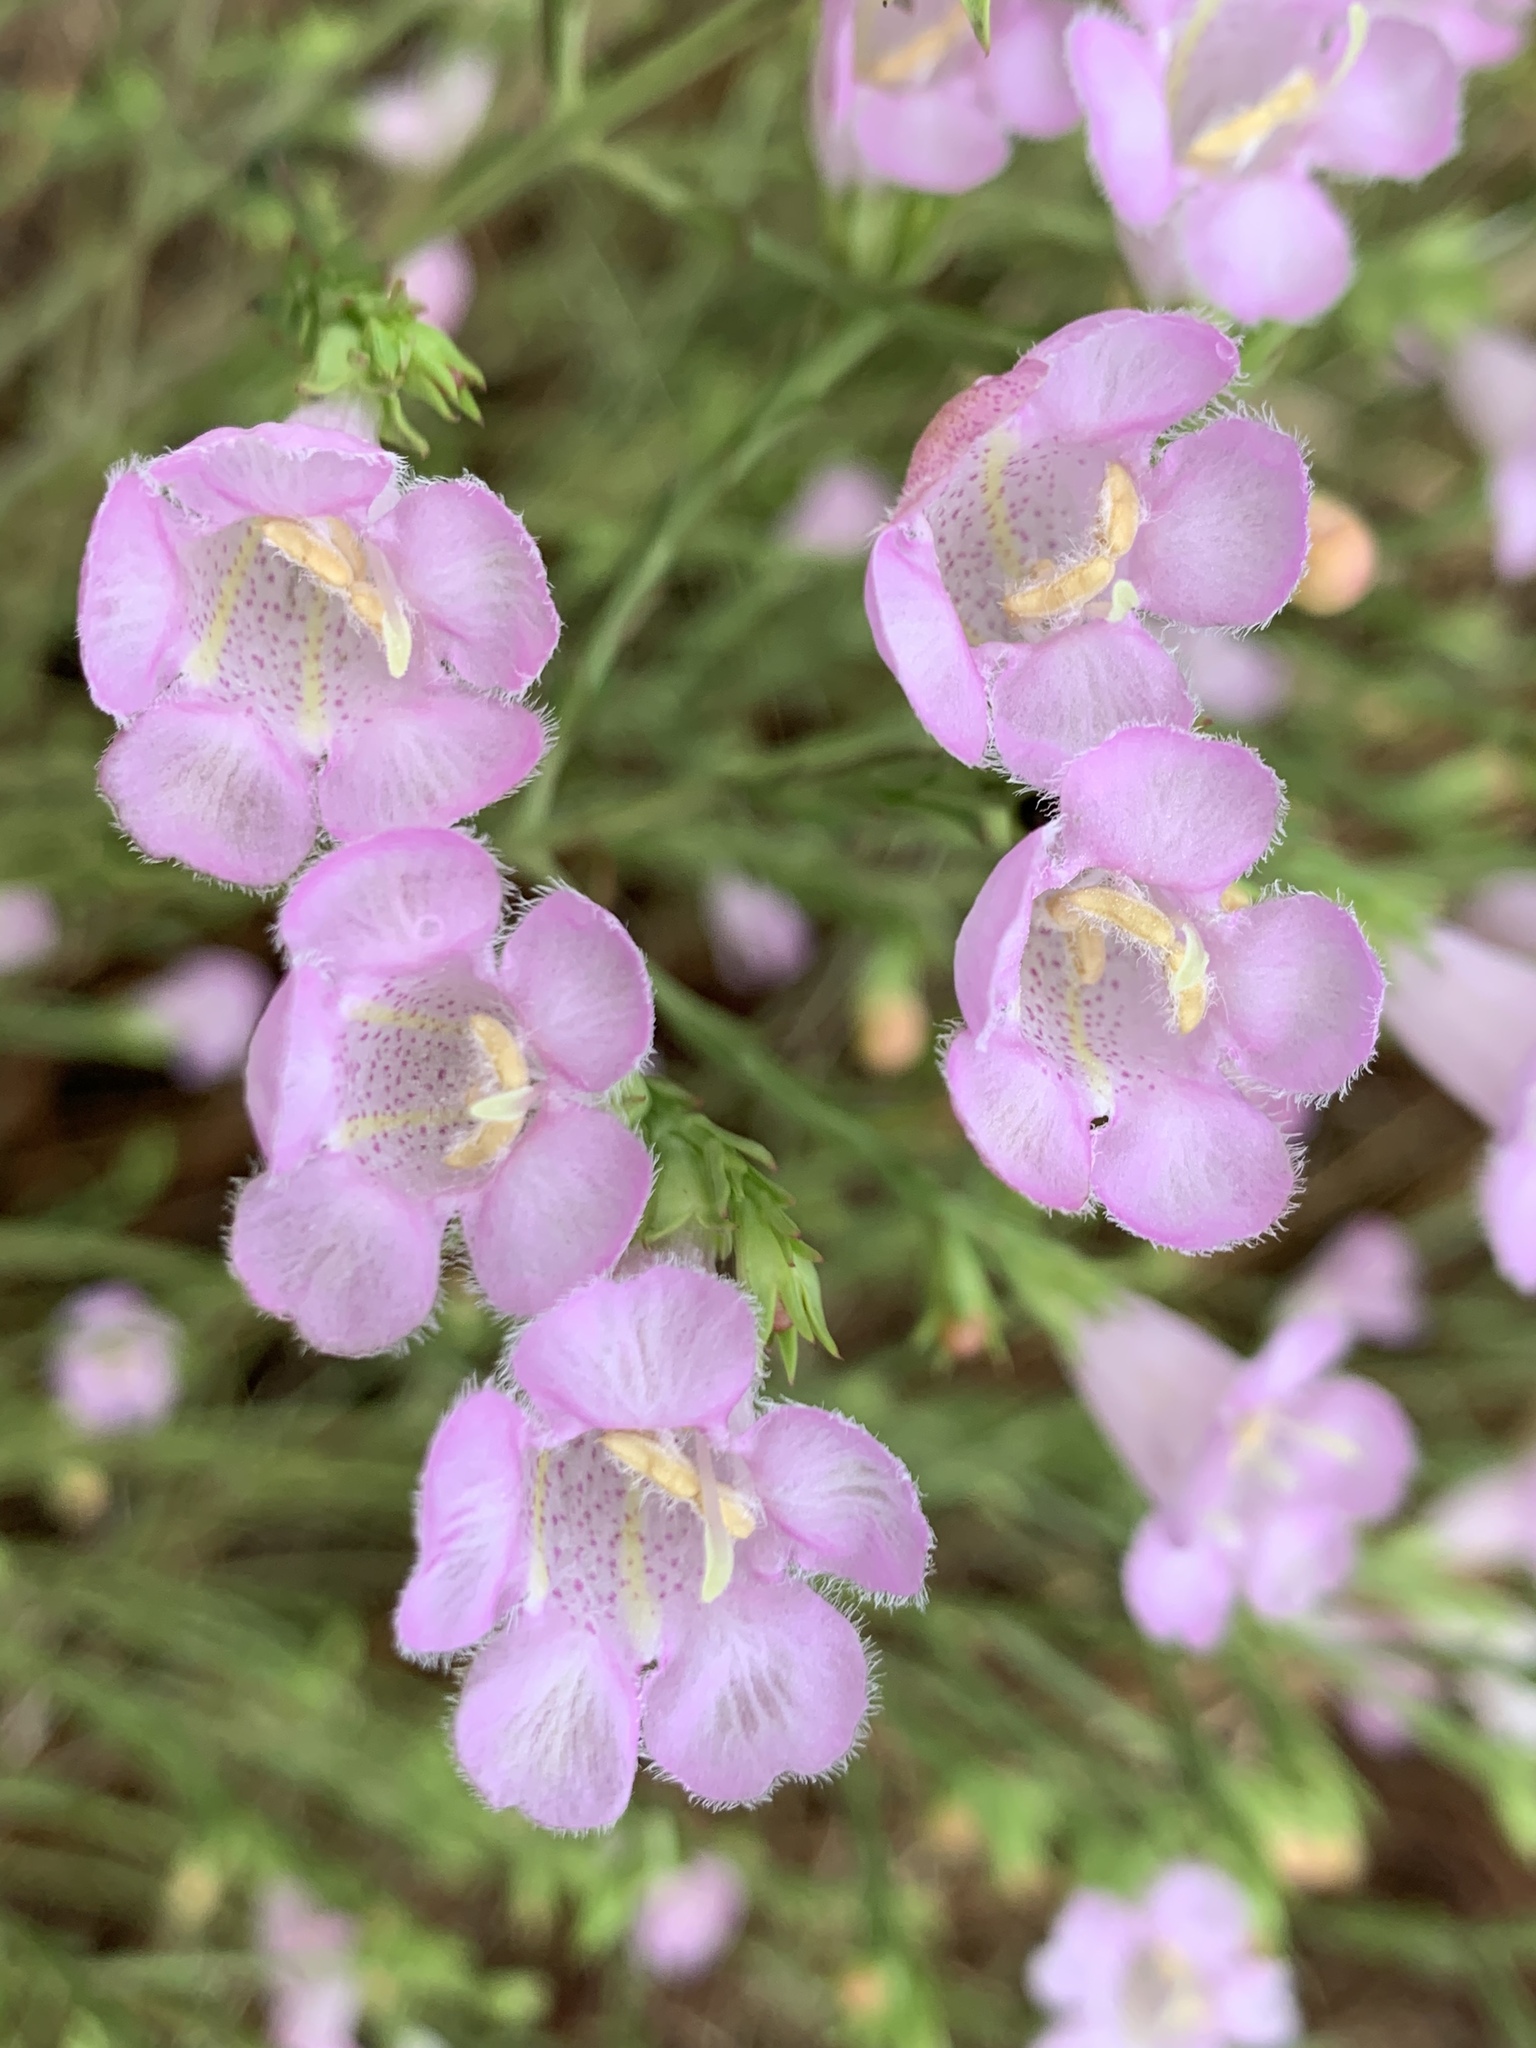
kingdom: Plantae
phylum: Tracheophyta
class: Magnoliopsida
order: Lamiales
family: Orobanchaceae
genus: Agalinis
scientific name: Agalinis heterophylla
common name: Prairie agalinis
